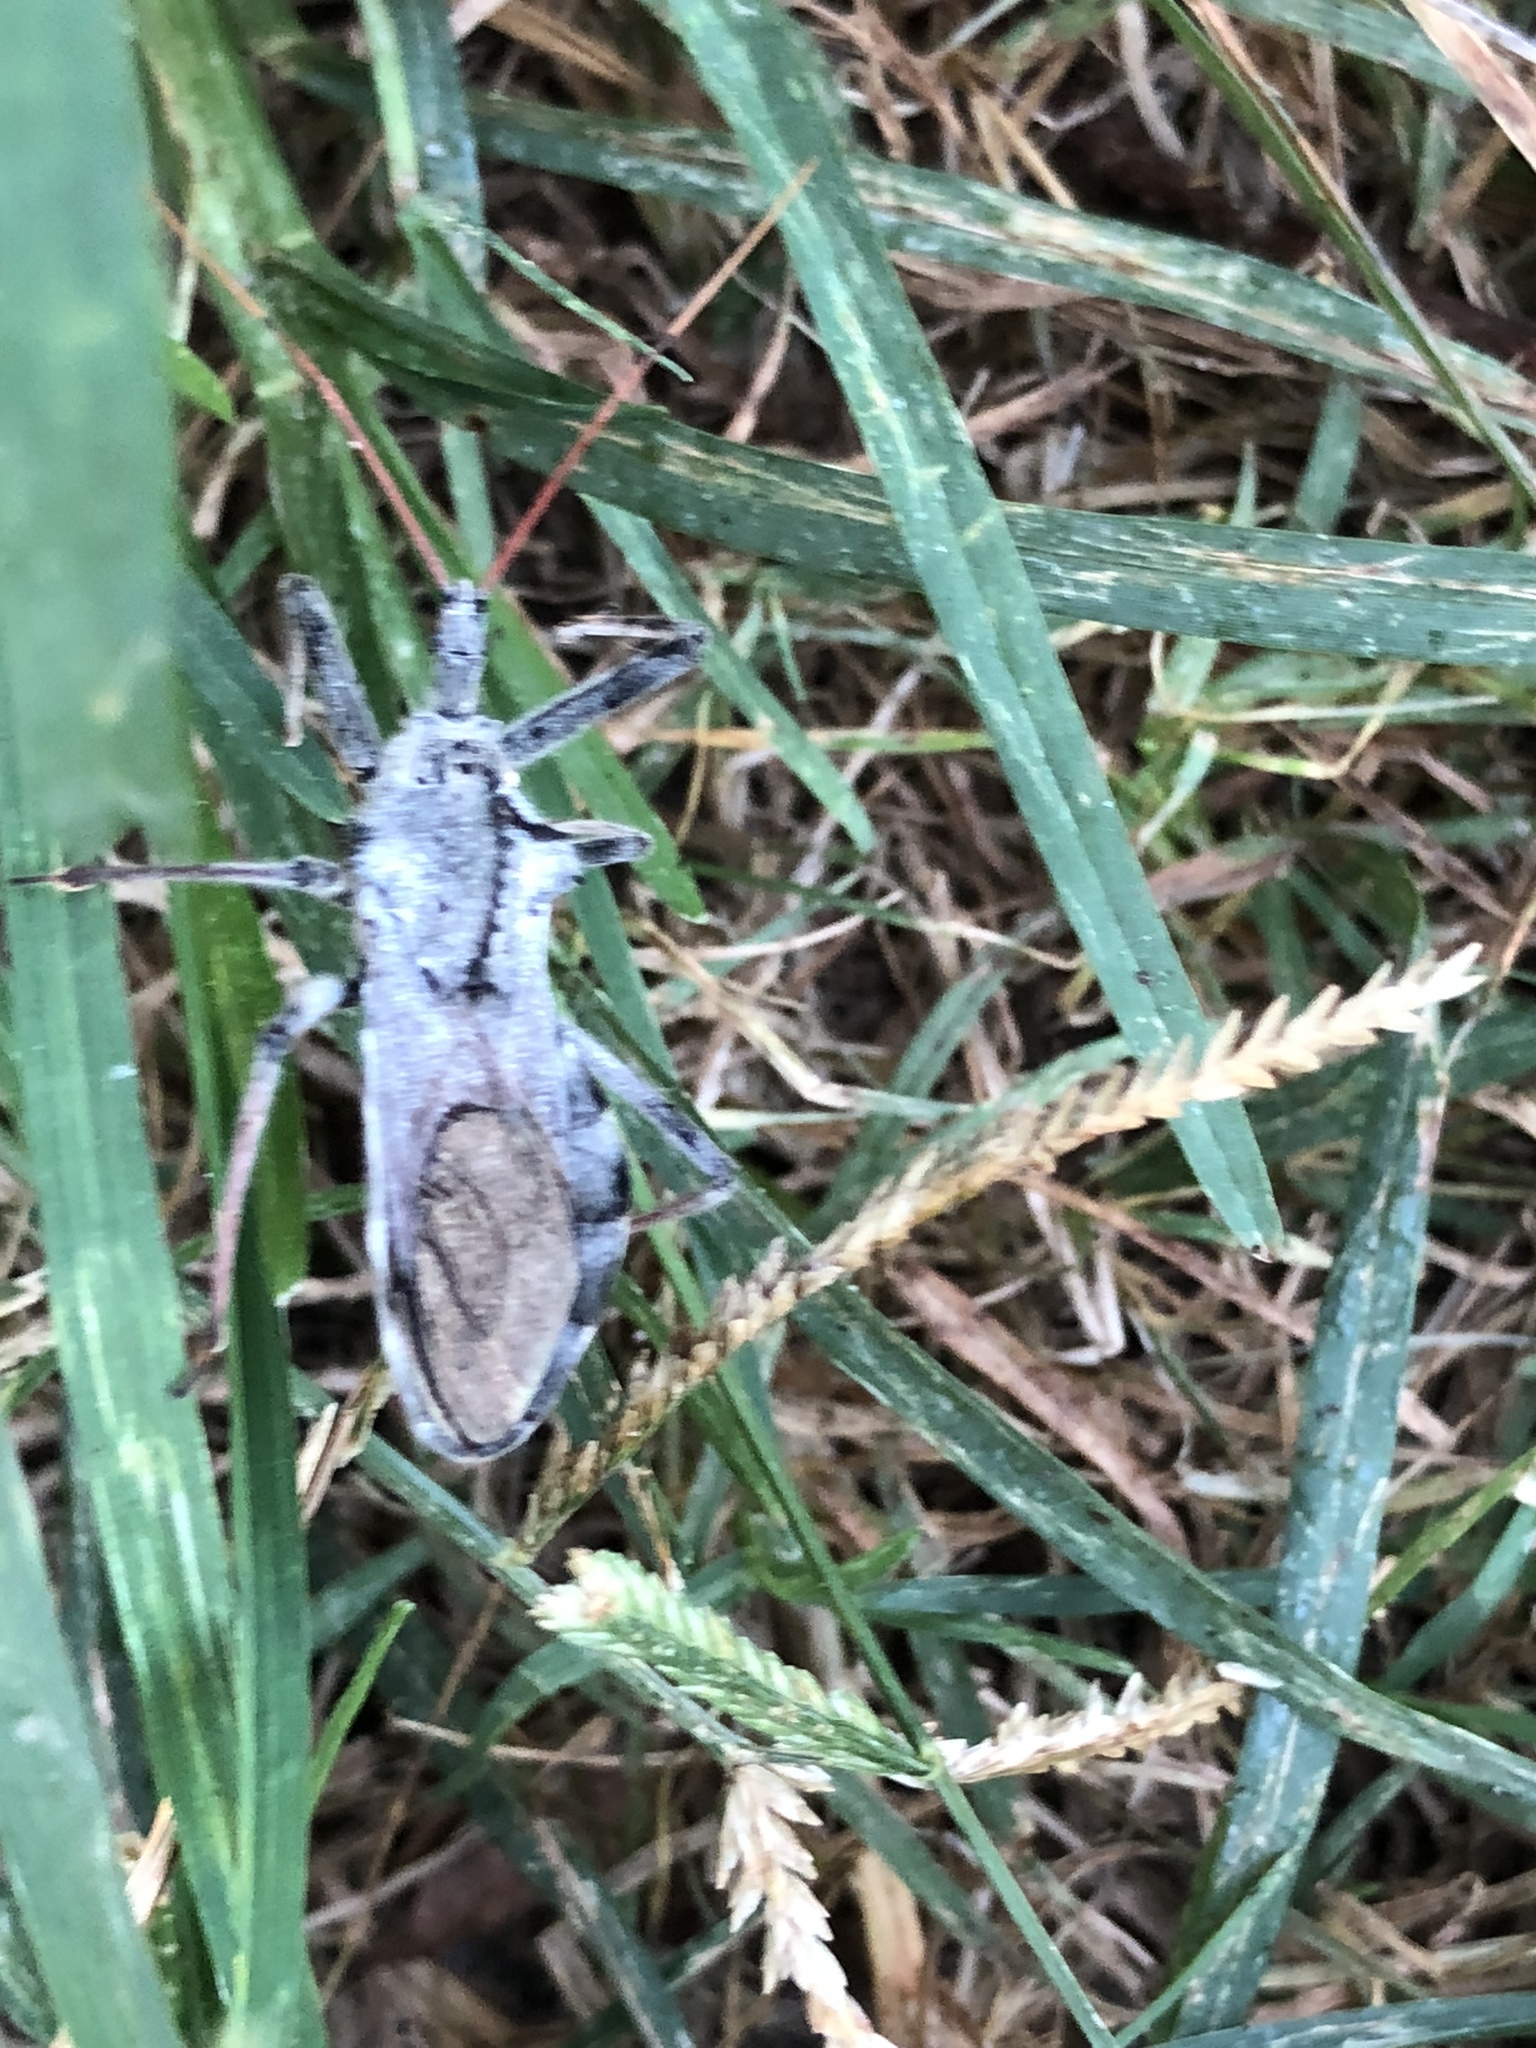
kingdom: Animalia
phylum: Arthropoda
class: Insecta
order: Hemiptera
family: Reduviidae
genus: Arilus
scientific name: Arilus cristatus
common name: North american wheel bug
